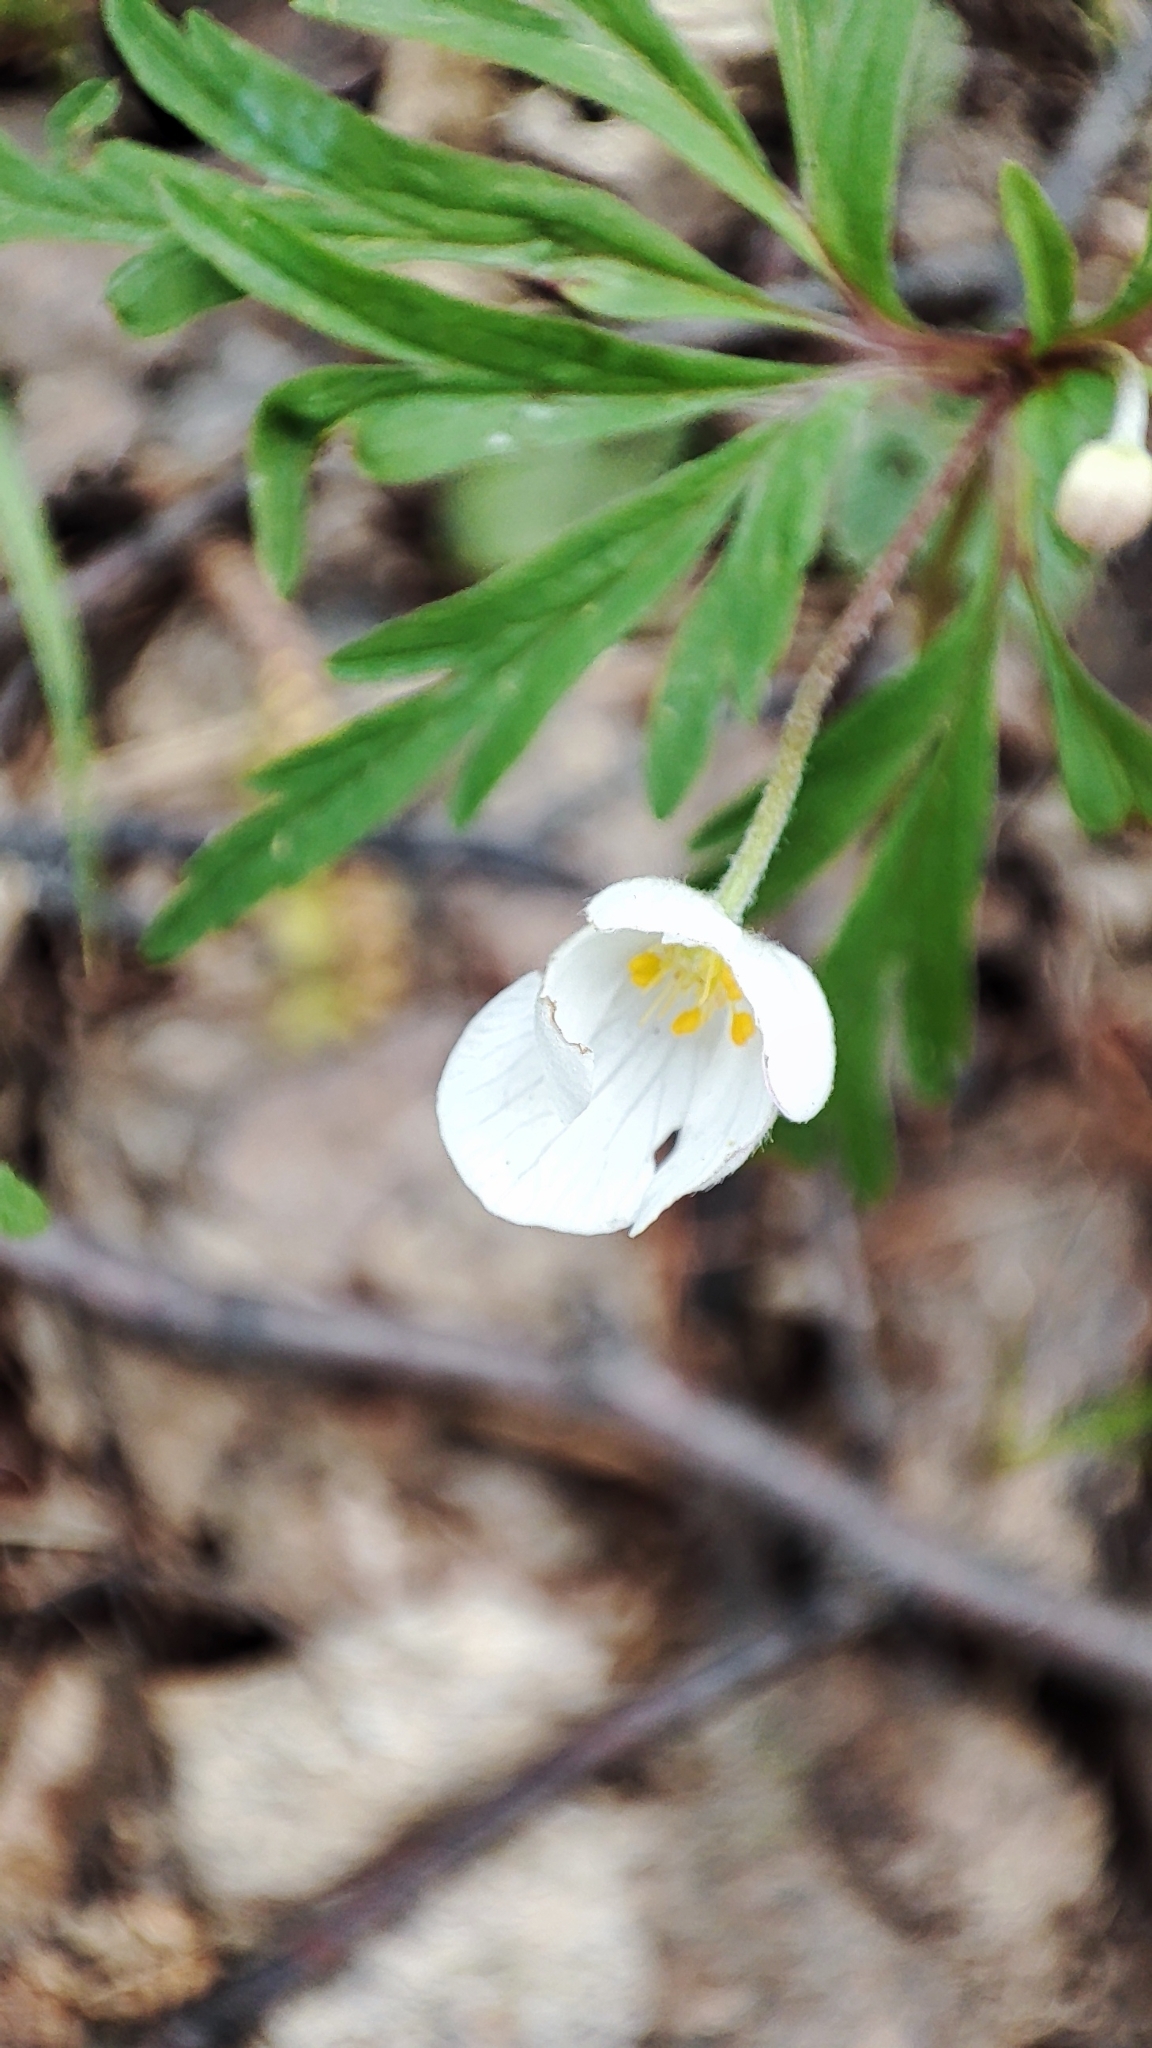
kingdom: Plantae
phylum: Tracheophyta
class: Magnoliopsida
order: Ranunculales
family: Ranunculaceae
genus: Anemone
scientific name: Anemone caerulea
